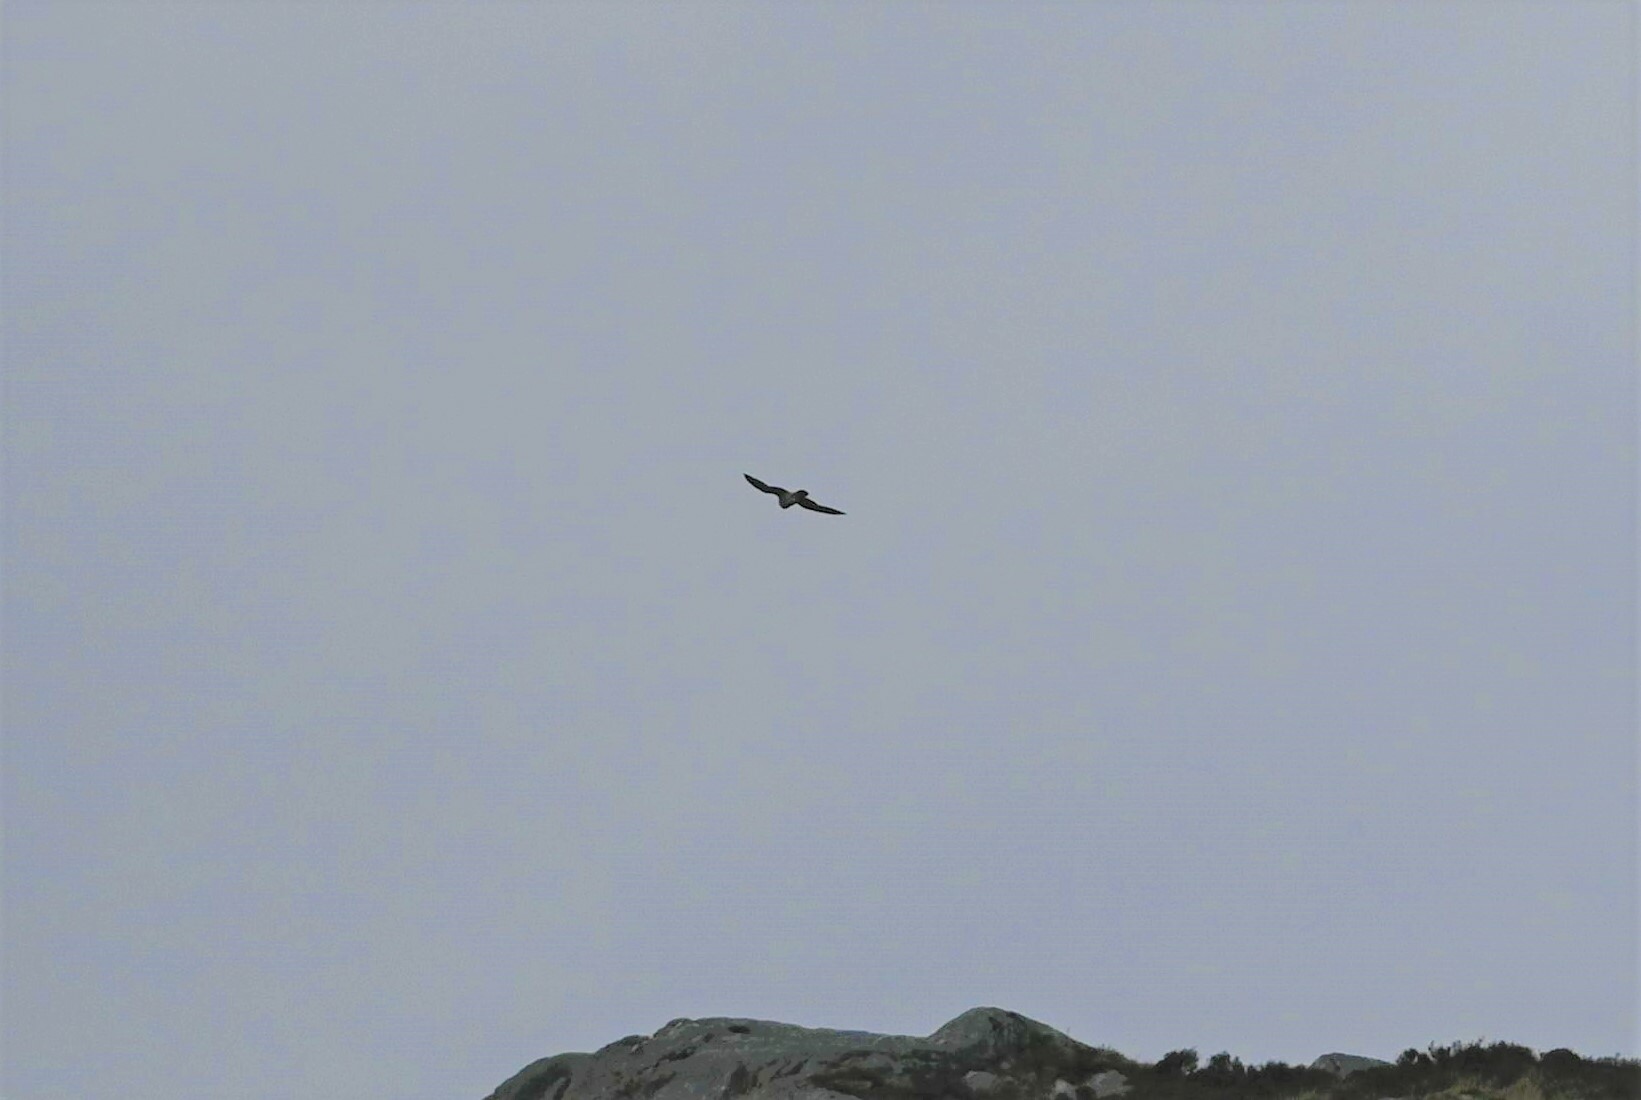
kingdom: Animalia
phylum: Chordata
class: Aves
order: Falconiformes
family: Falconidae
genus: Falco
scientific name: Falco peregrinus
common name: Peregrine falcon
